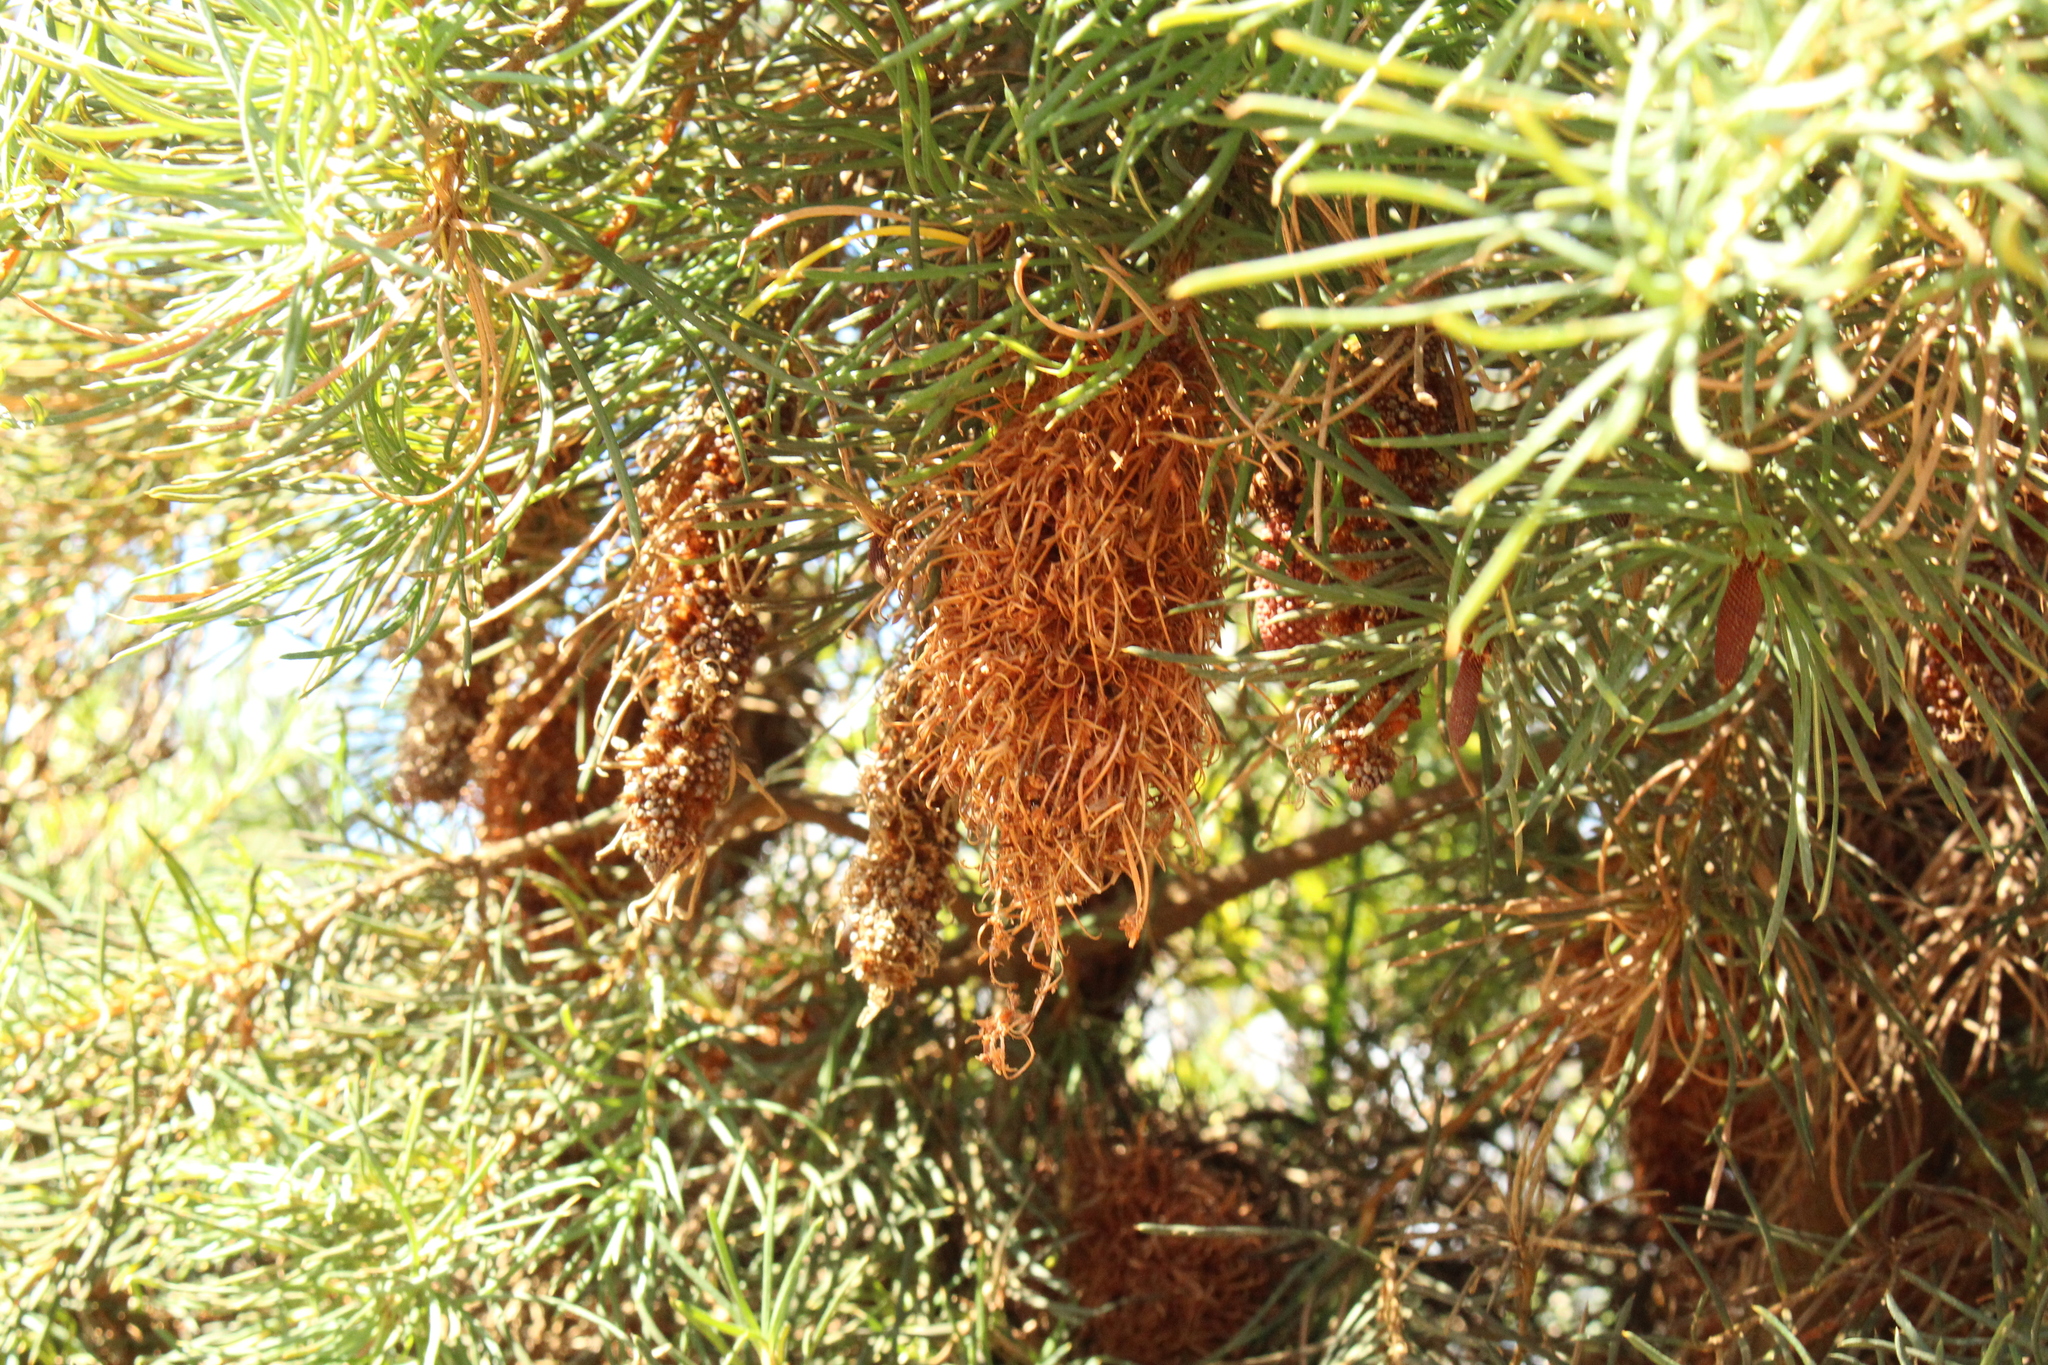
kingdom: Plantae
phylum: Tracheophyta
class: Magnoliopsida
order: Proteales
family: Proteaceae
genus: Banksia
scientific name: Banksia nutans
